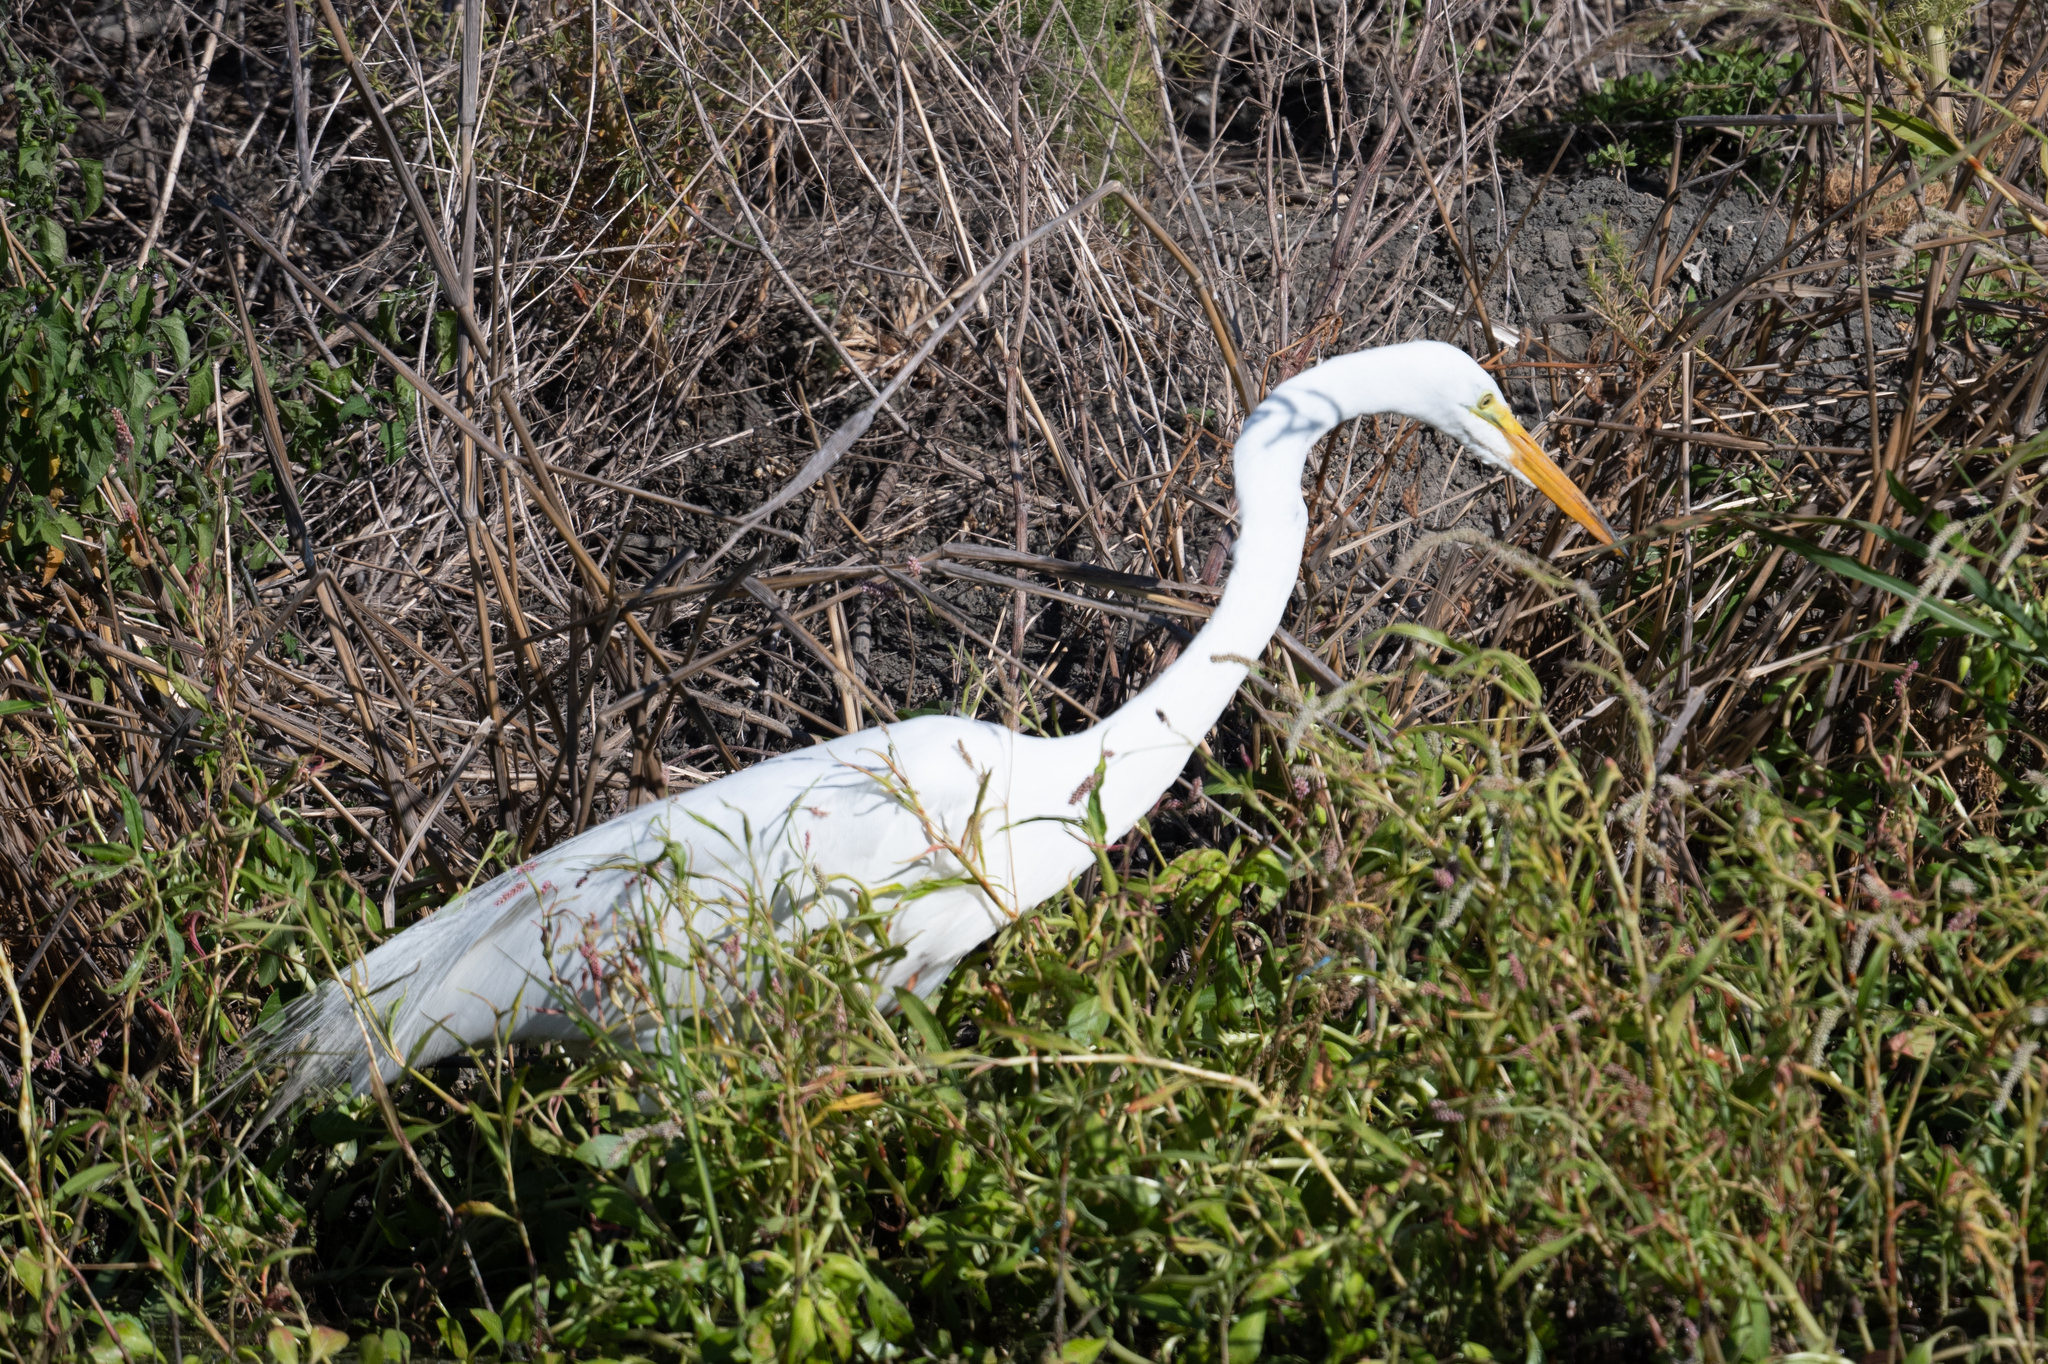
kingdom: Animalia
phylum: Chordata
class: Aves
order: Pelecaniformes
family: Ardeidae
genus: Ardea
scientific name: Ardea alba
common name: Great egret
